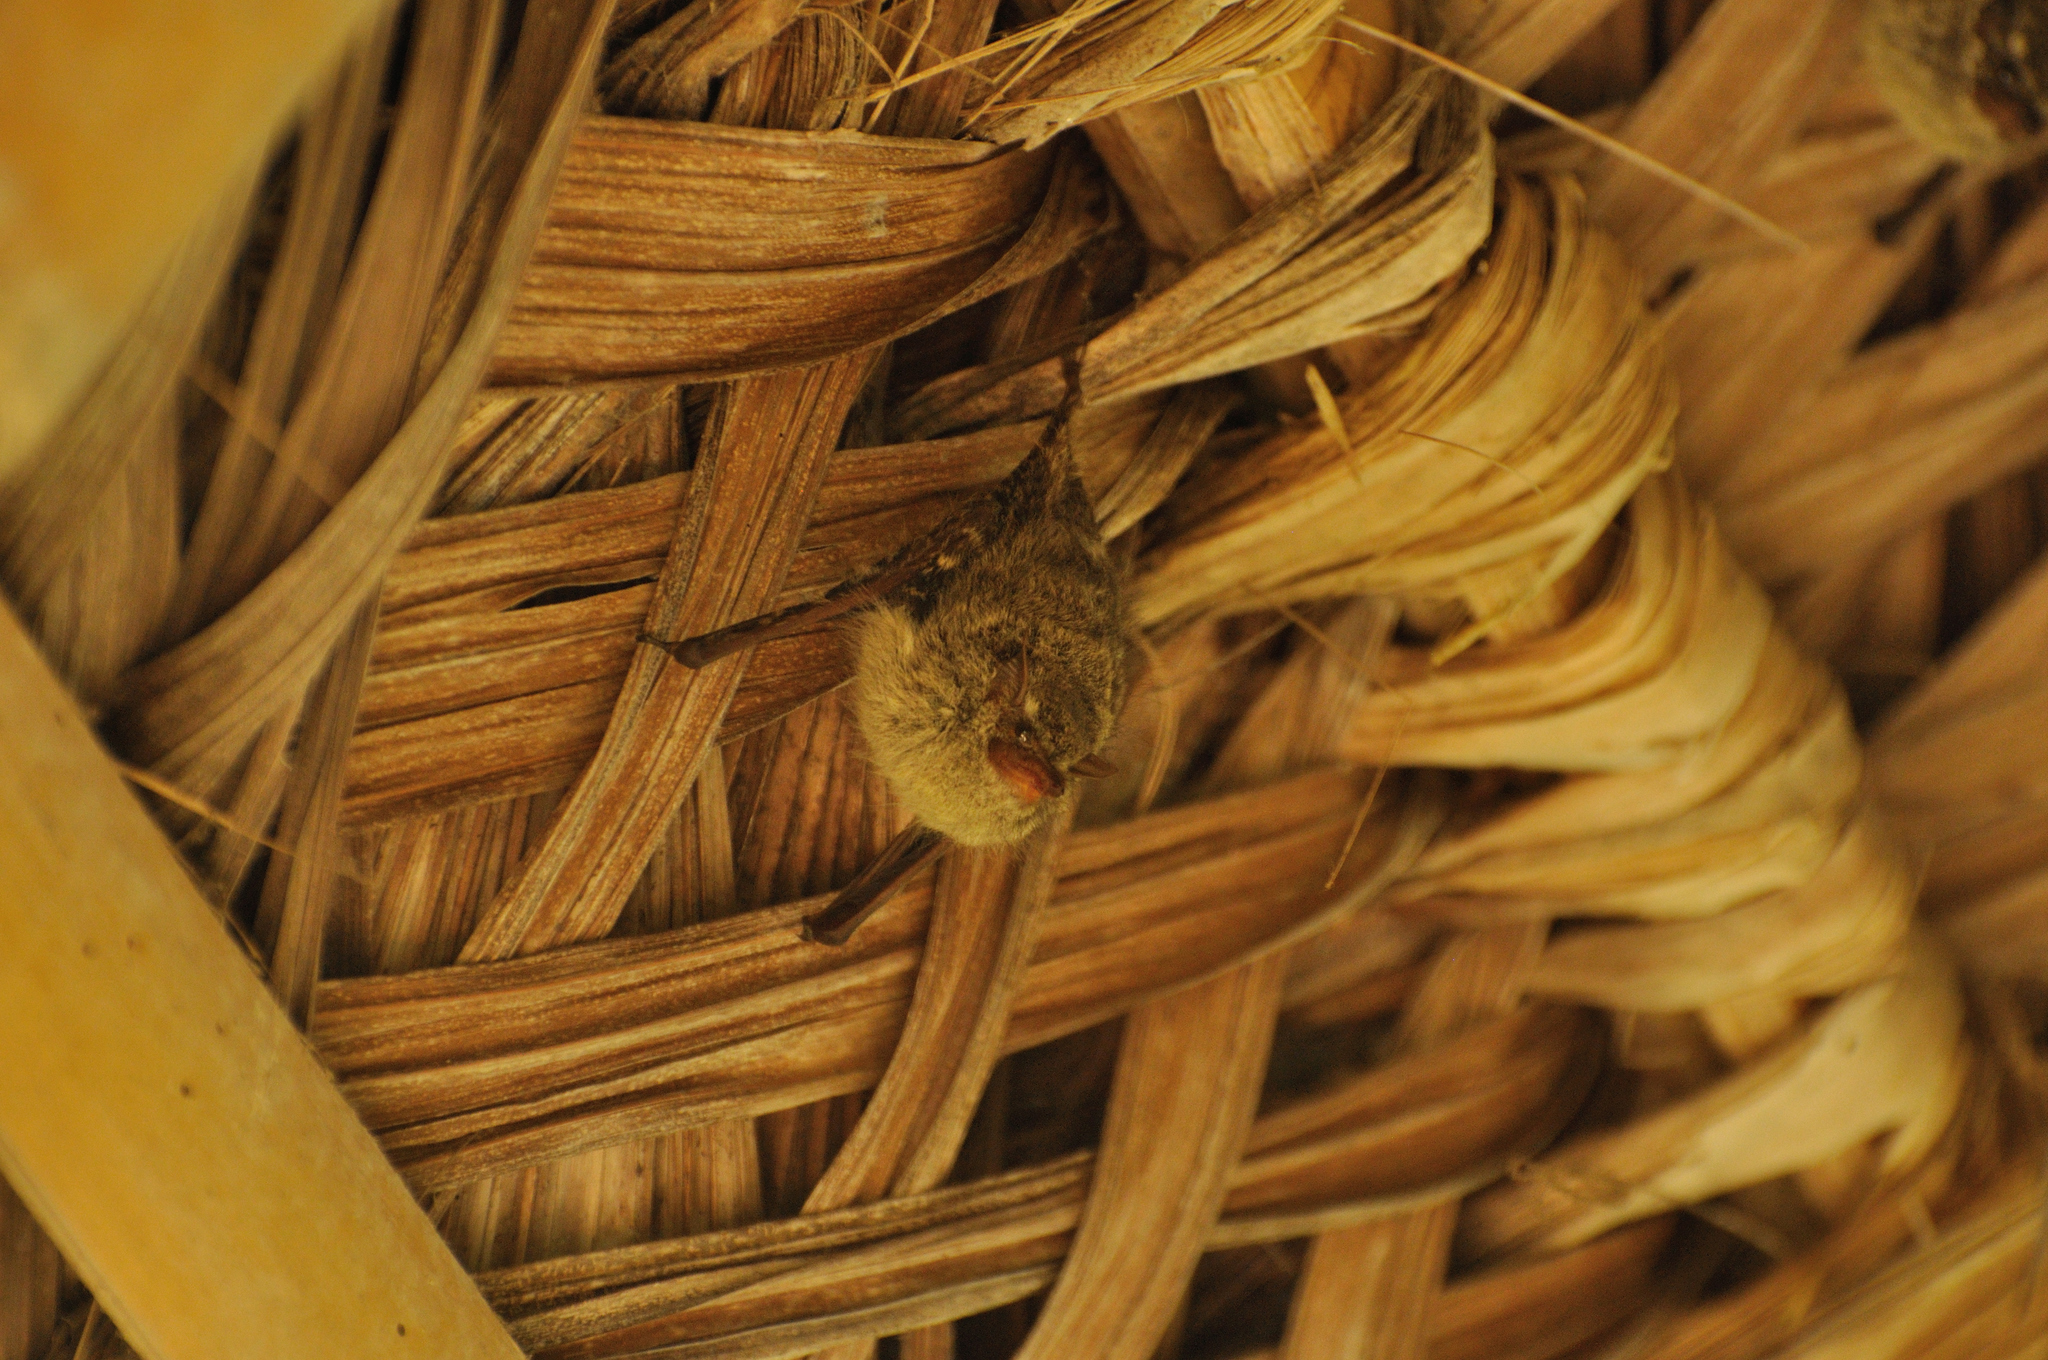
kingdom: Animalia
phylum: Chordata
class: Mammalia
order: Chiroptera
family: Emballonuridae
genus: Rhynchonycteris
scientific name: Rhynchonycteris naso
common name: Proboscis bat
